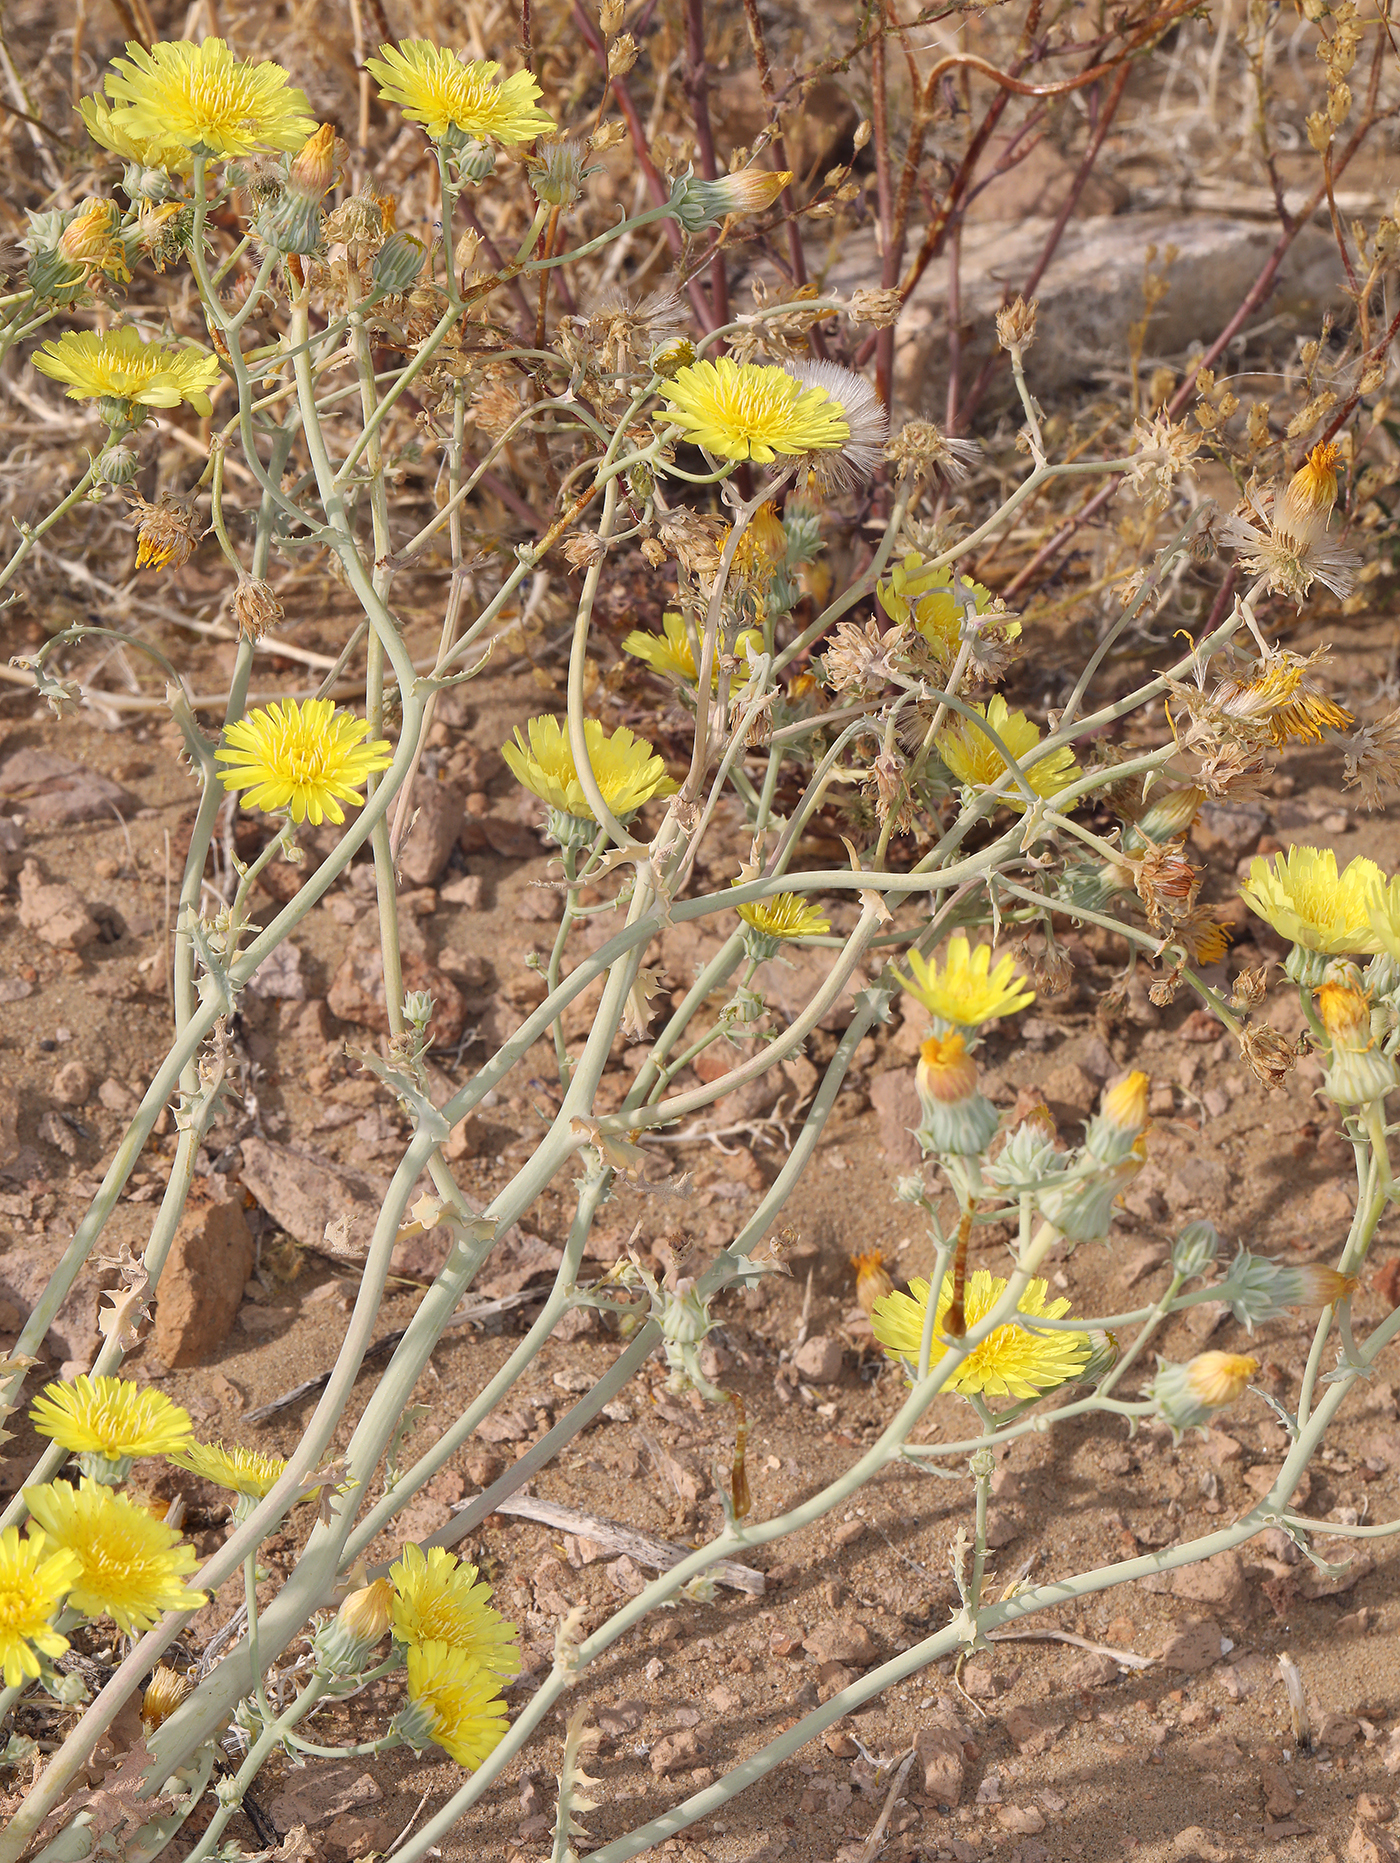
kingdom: Plantae
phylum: Tracheophyta
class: Magnoliopsida
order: Asterales
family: Asteraceae
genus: Malacothrix
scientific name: Malacothrix sonchoides
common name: Sow-thistle desert-dandelion
